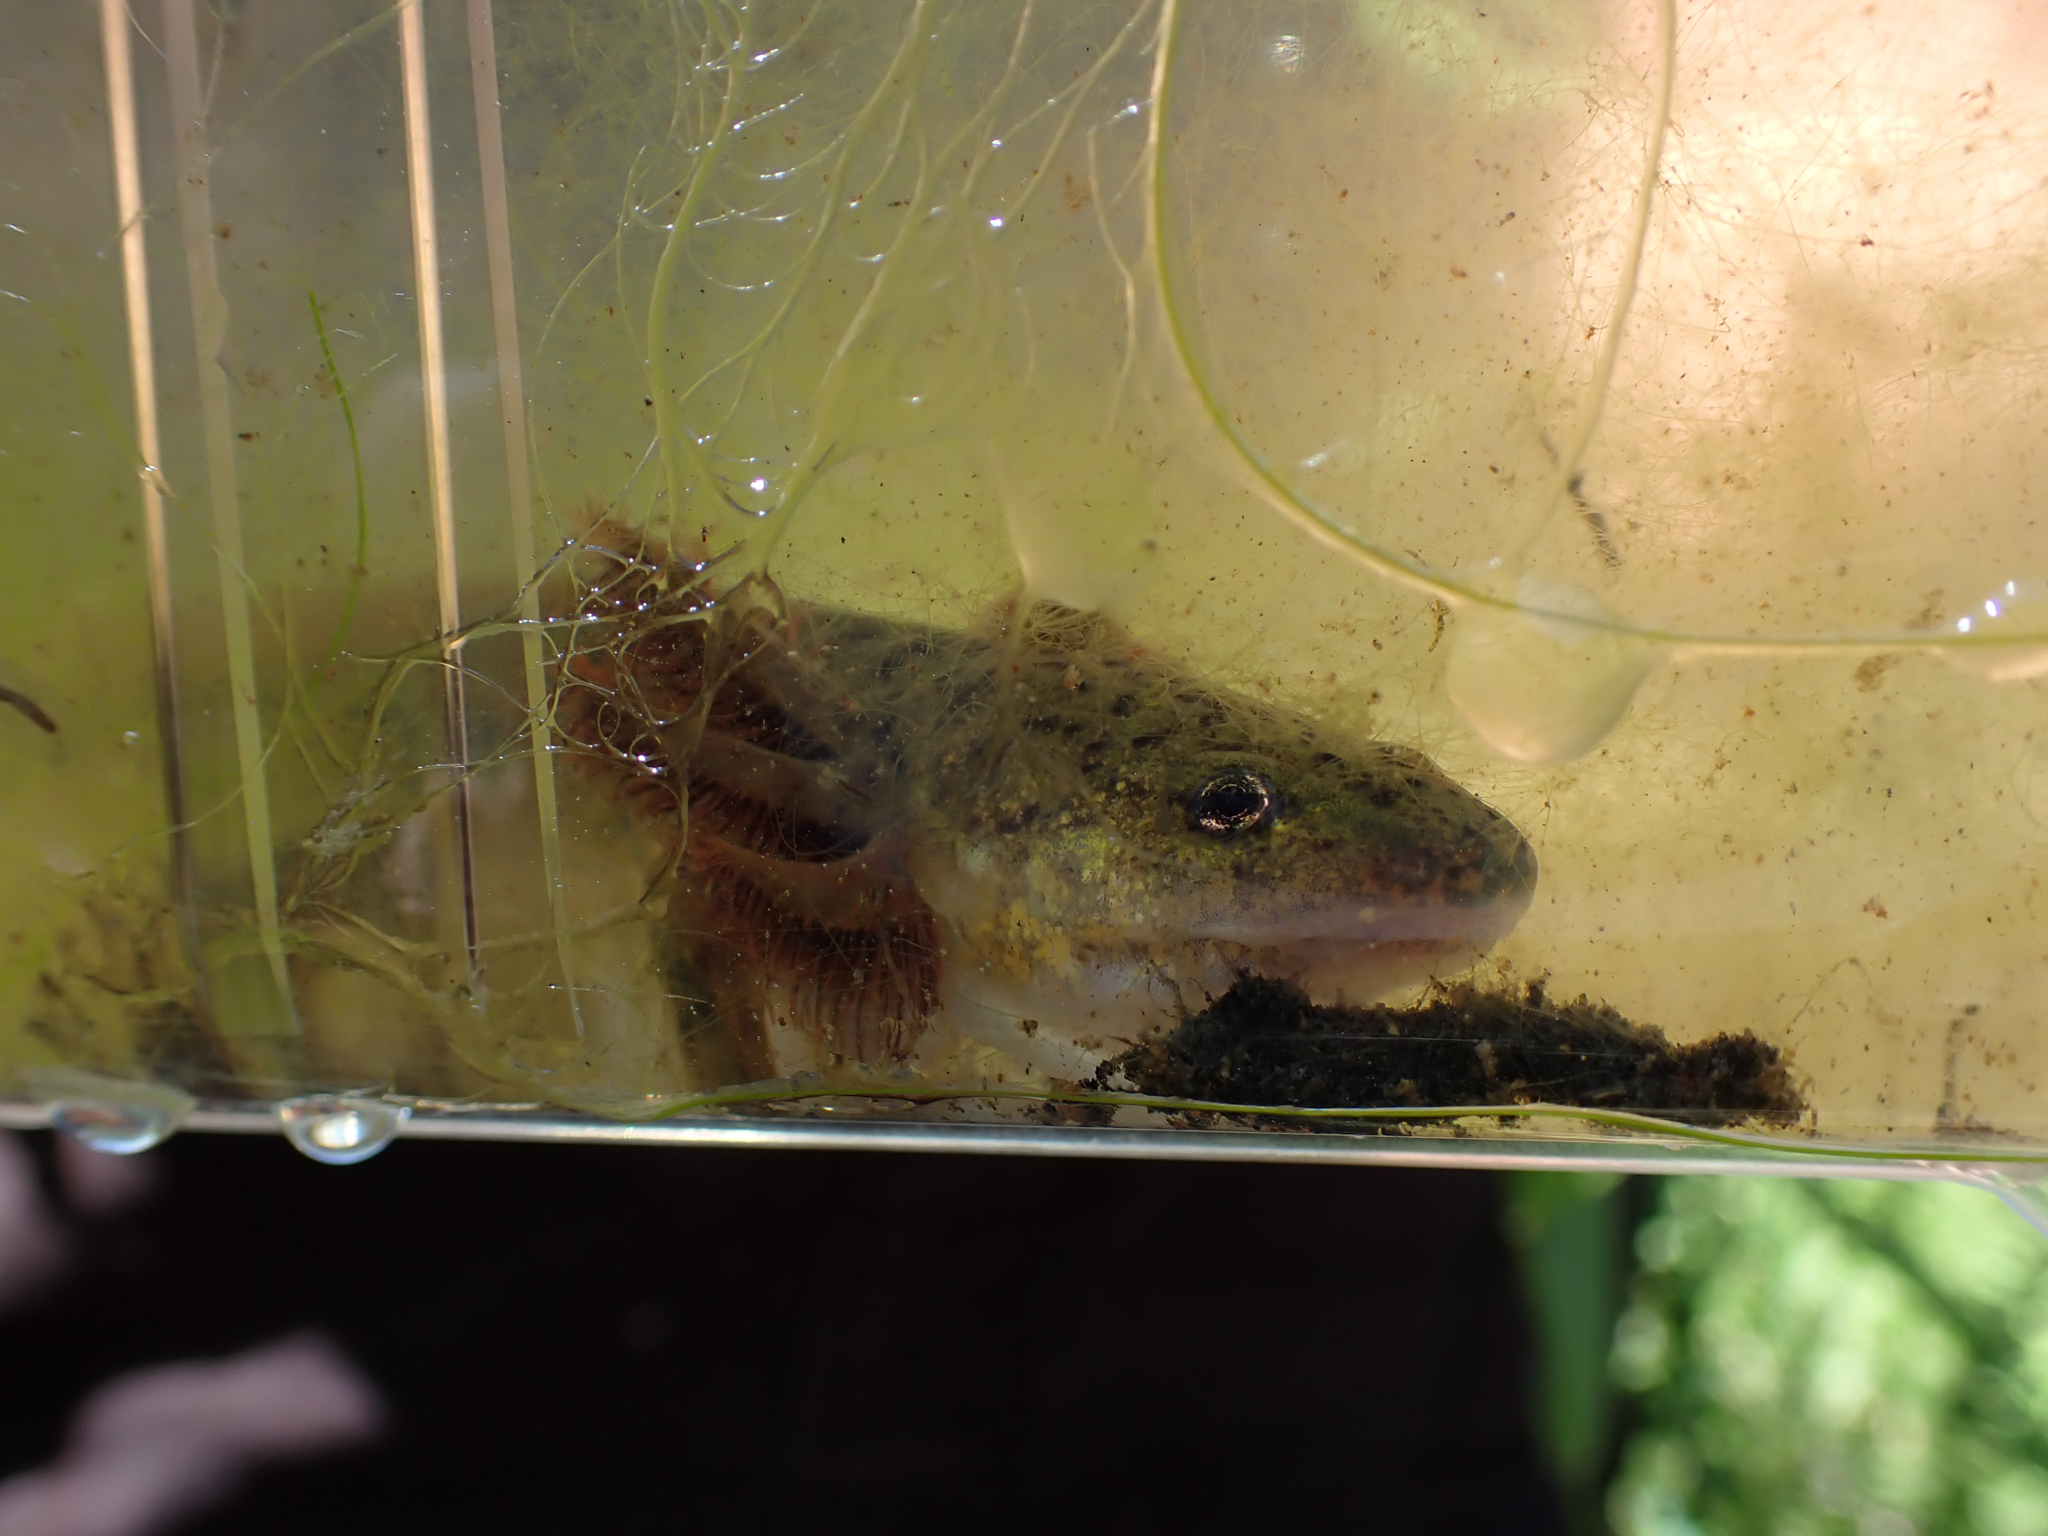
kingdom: Animalia
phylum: Chordata
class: Amphibia
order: Caudata
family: Ambystomatidae
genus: Ambystoma
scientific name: Ambystoma gracile
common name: Northwestern salamander
